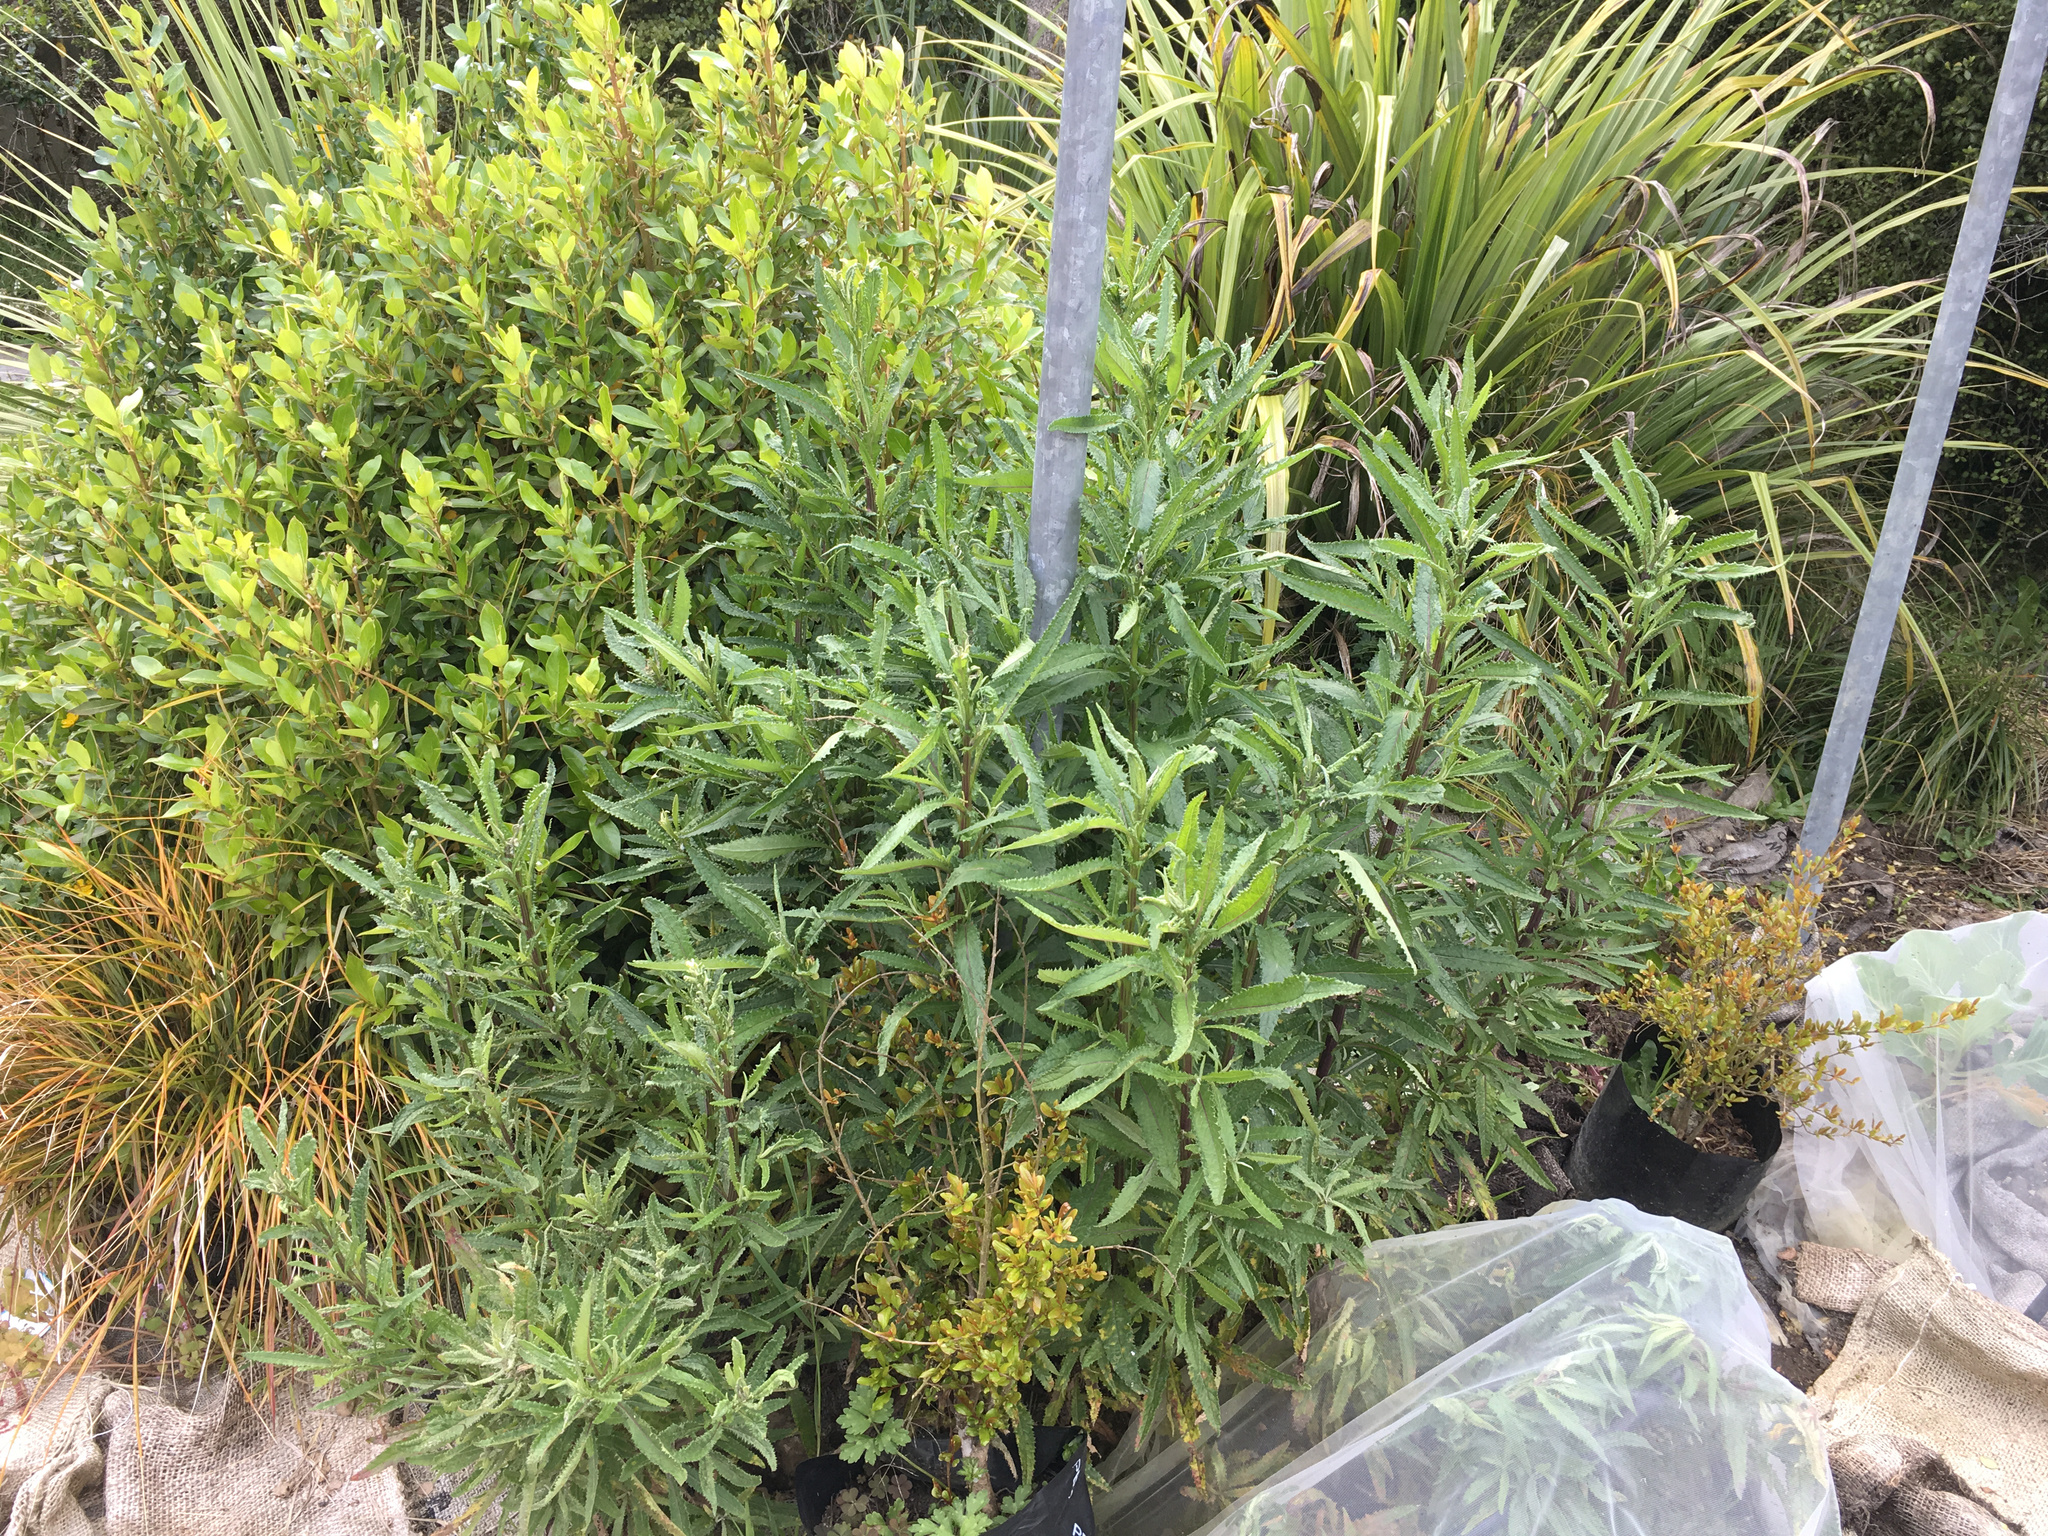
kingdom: Plantae
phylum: Tracheophyta
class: Magnoliopsida
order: Asterales
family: Asteraceae
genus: Senecio
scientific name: Senecio minimus
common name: Toothed fireweed
